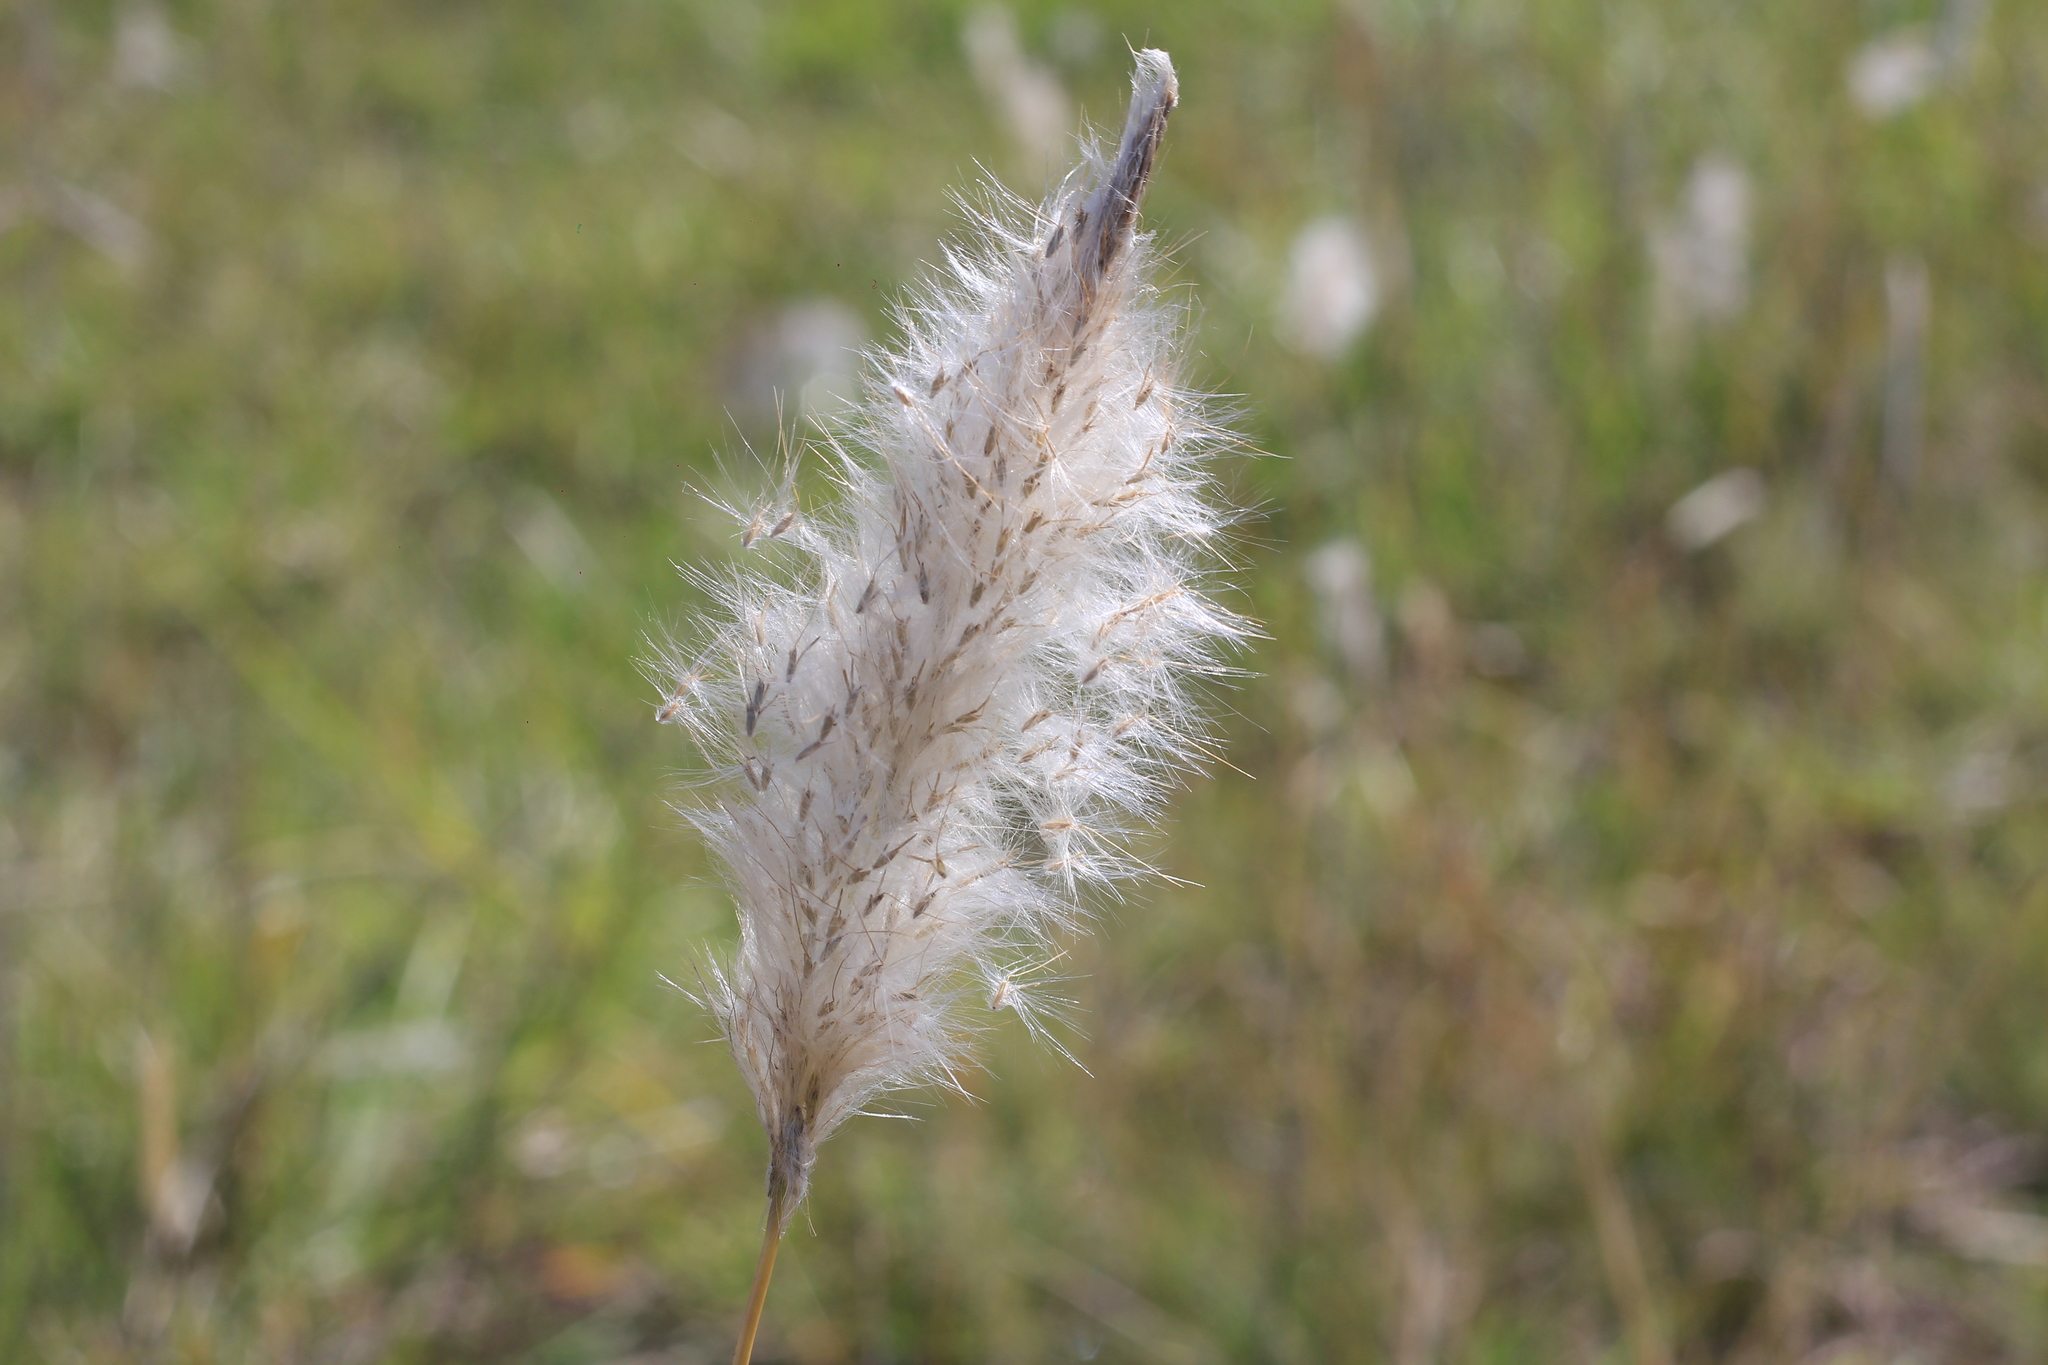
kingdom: Plantae
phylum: Tracheophyta
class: Liliopsida
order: Poales
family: Poaceae
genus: Bothriochloa
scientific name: Bothriochloa laguroides
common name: Silver bluestem
